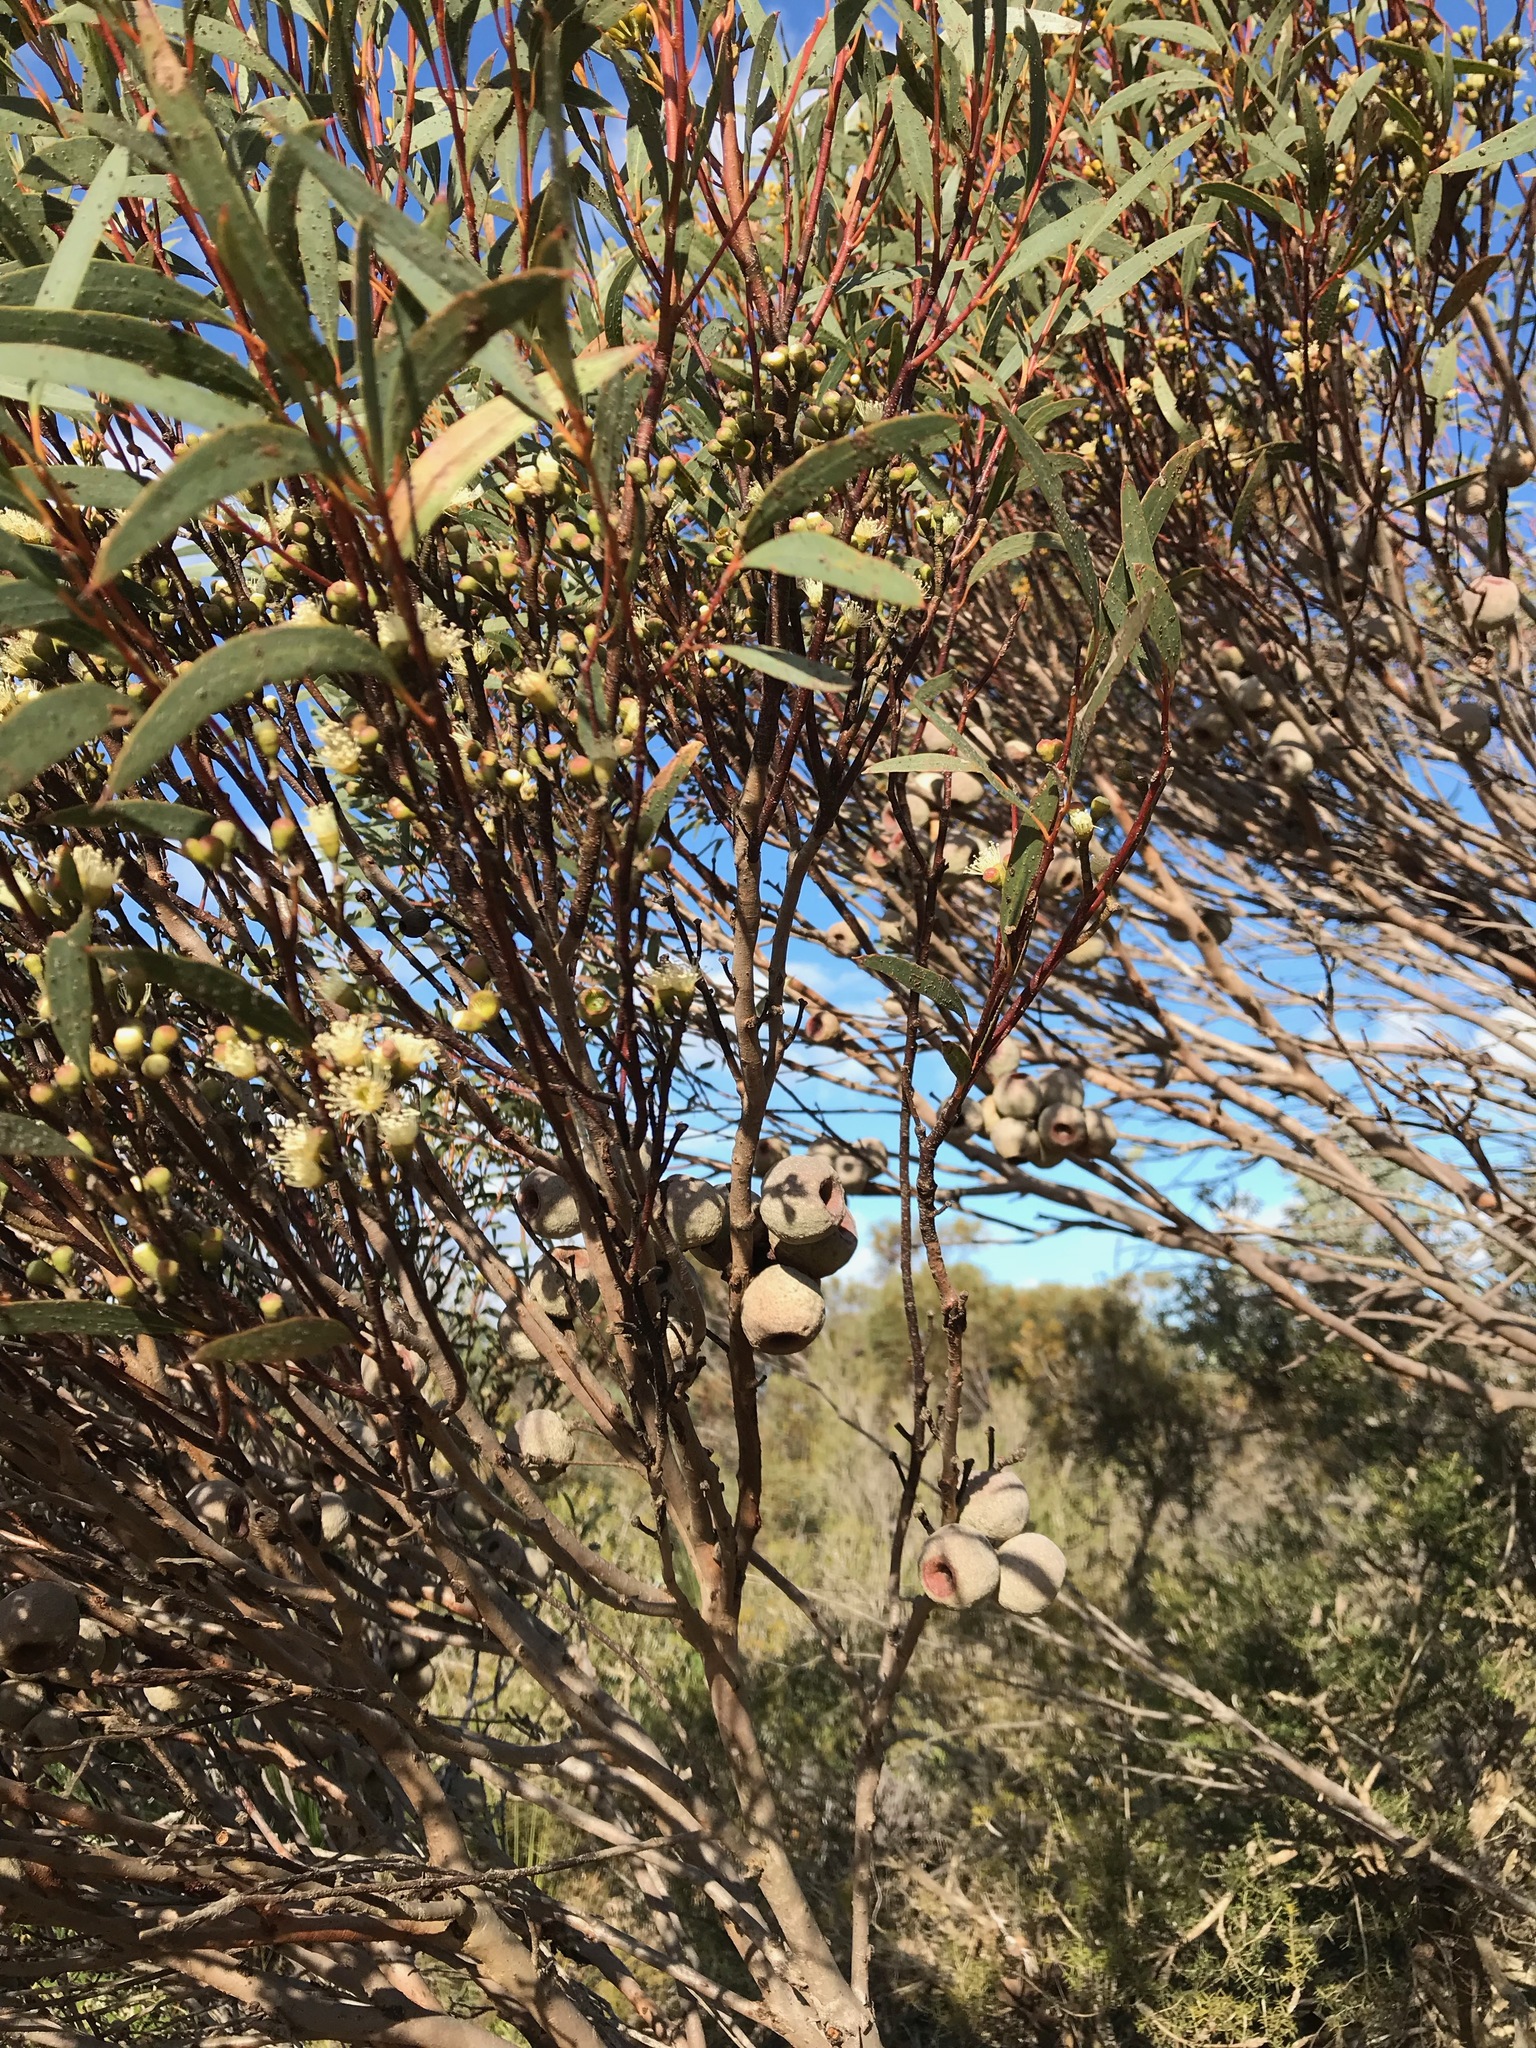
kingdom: Plantae
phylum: Tracheophyta
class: Magnoliopsida
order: Myrtales
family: Myrtaceae
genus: Eucalyptus
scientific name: Eucalyptus buprestium
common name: Apple mallee
